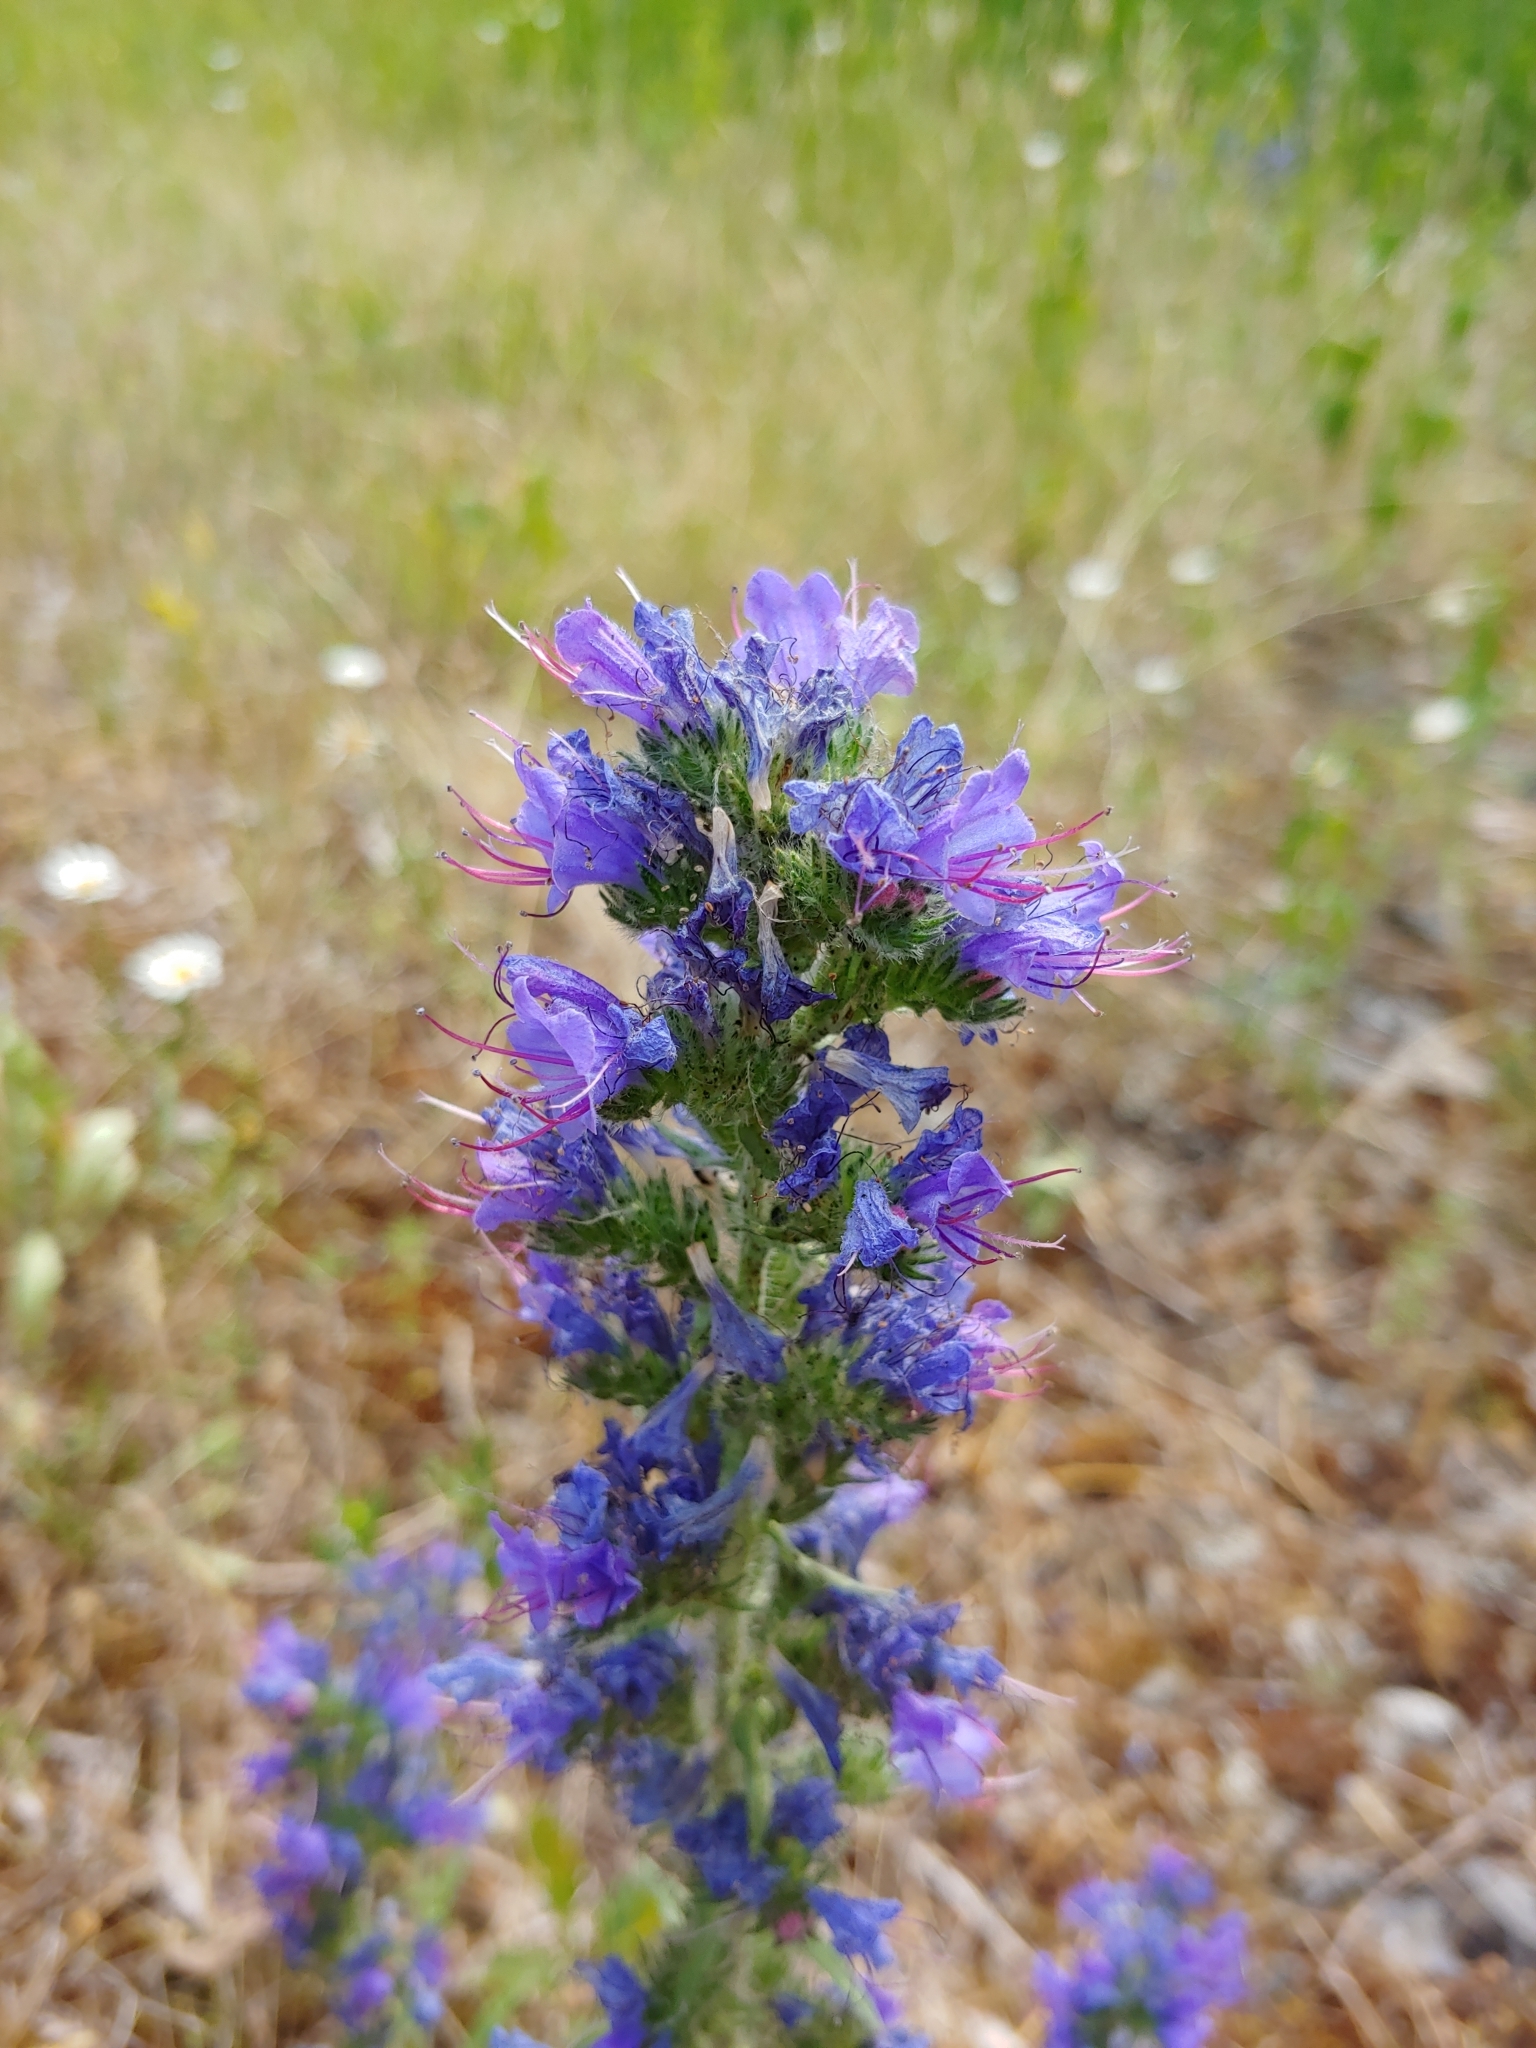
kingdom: Plantae
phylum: Tracheophyta
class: Magnoliopsida
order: Boraginales
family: Boraginaceae
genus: Echium
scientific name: Echium vulgare
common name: Common viper's bugloss
